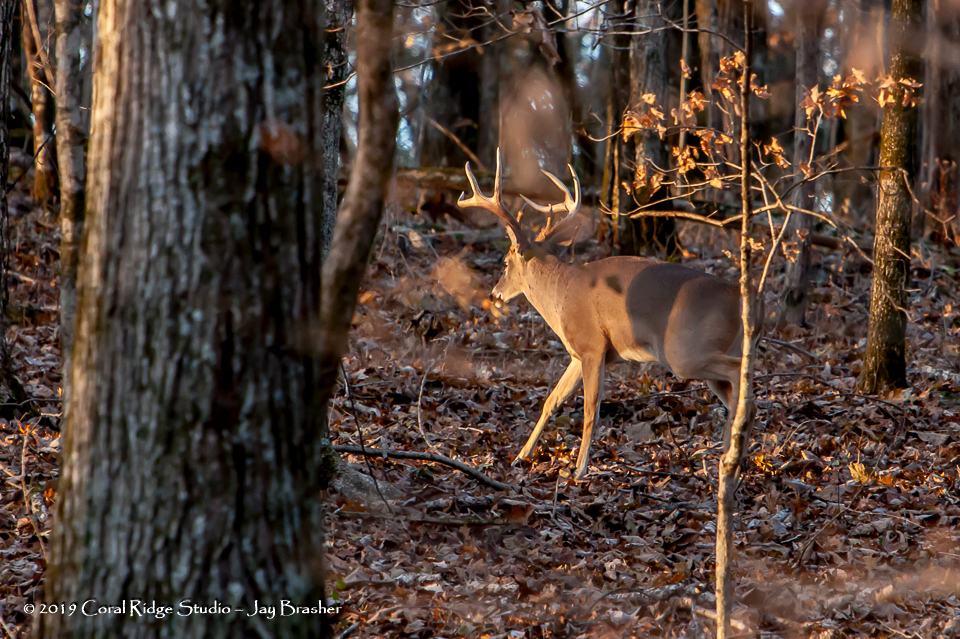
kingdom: Animalia
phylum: Chordata
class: Mammalia
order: Artiodactyla
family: Cervidae
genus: Odocoileus
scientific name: Odocoileus virginianus
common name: White-tailed deer
